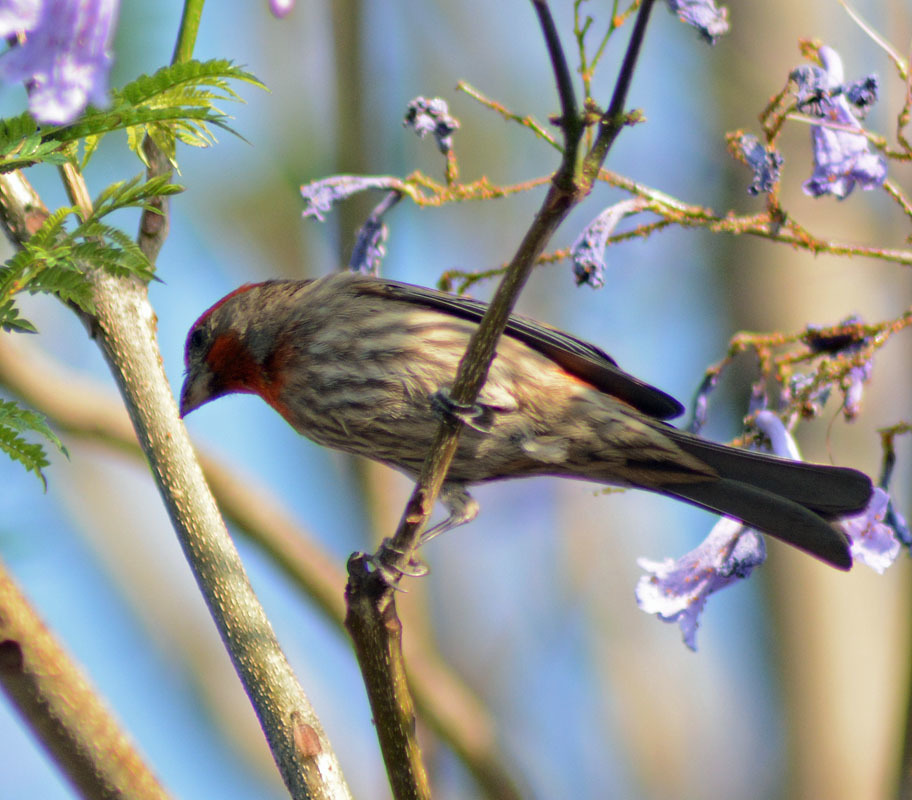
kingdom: Animalia
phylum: Chordata
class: Aves
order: Passeriformes
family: Fringillidae
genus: Haemorhous
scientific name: Haemorhous mexicanus
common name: House finch
